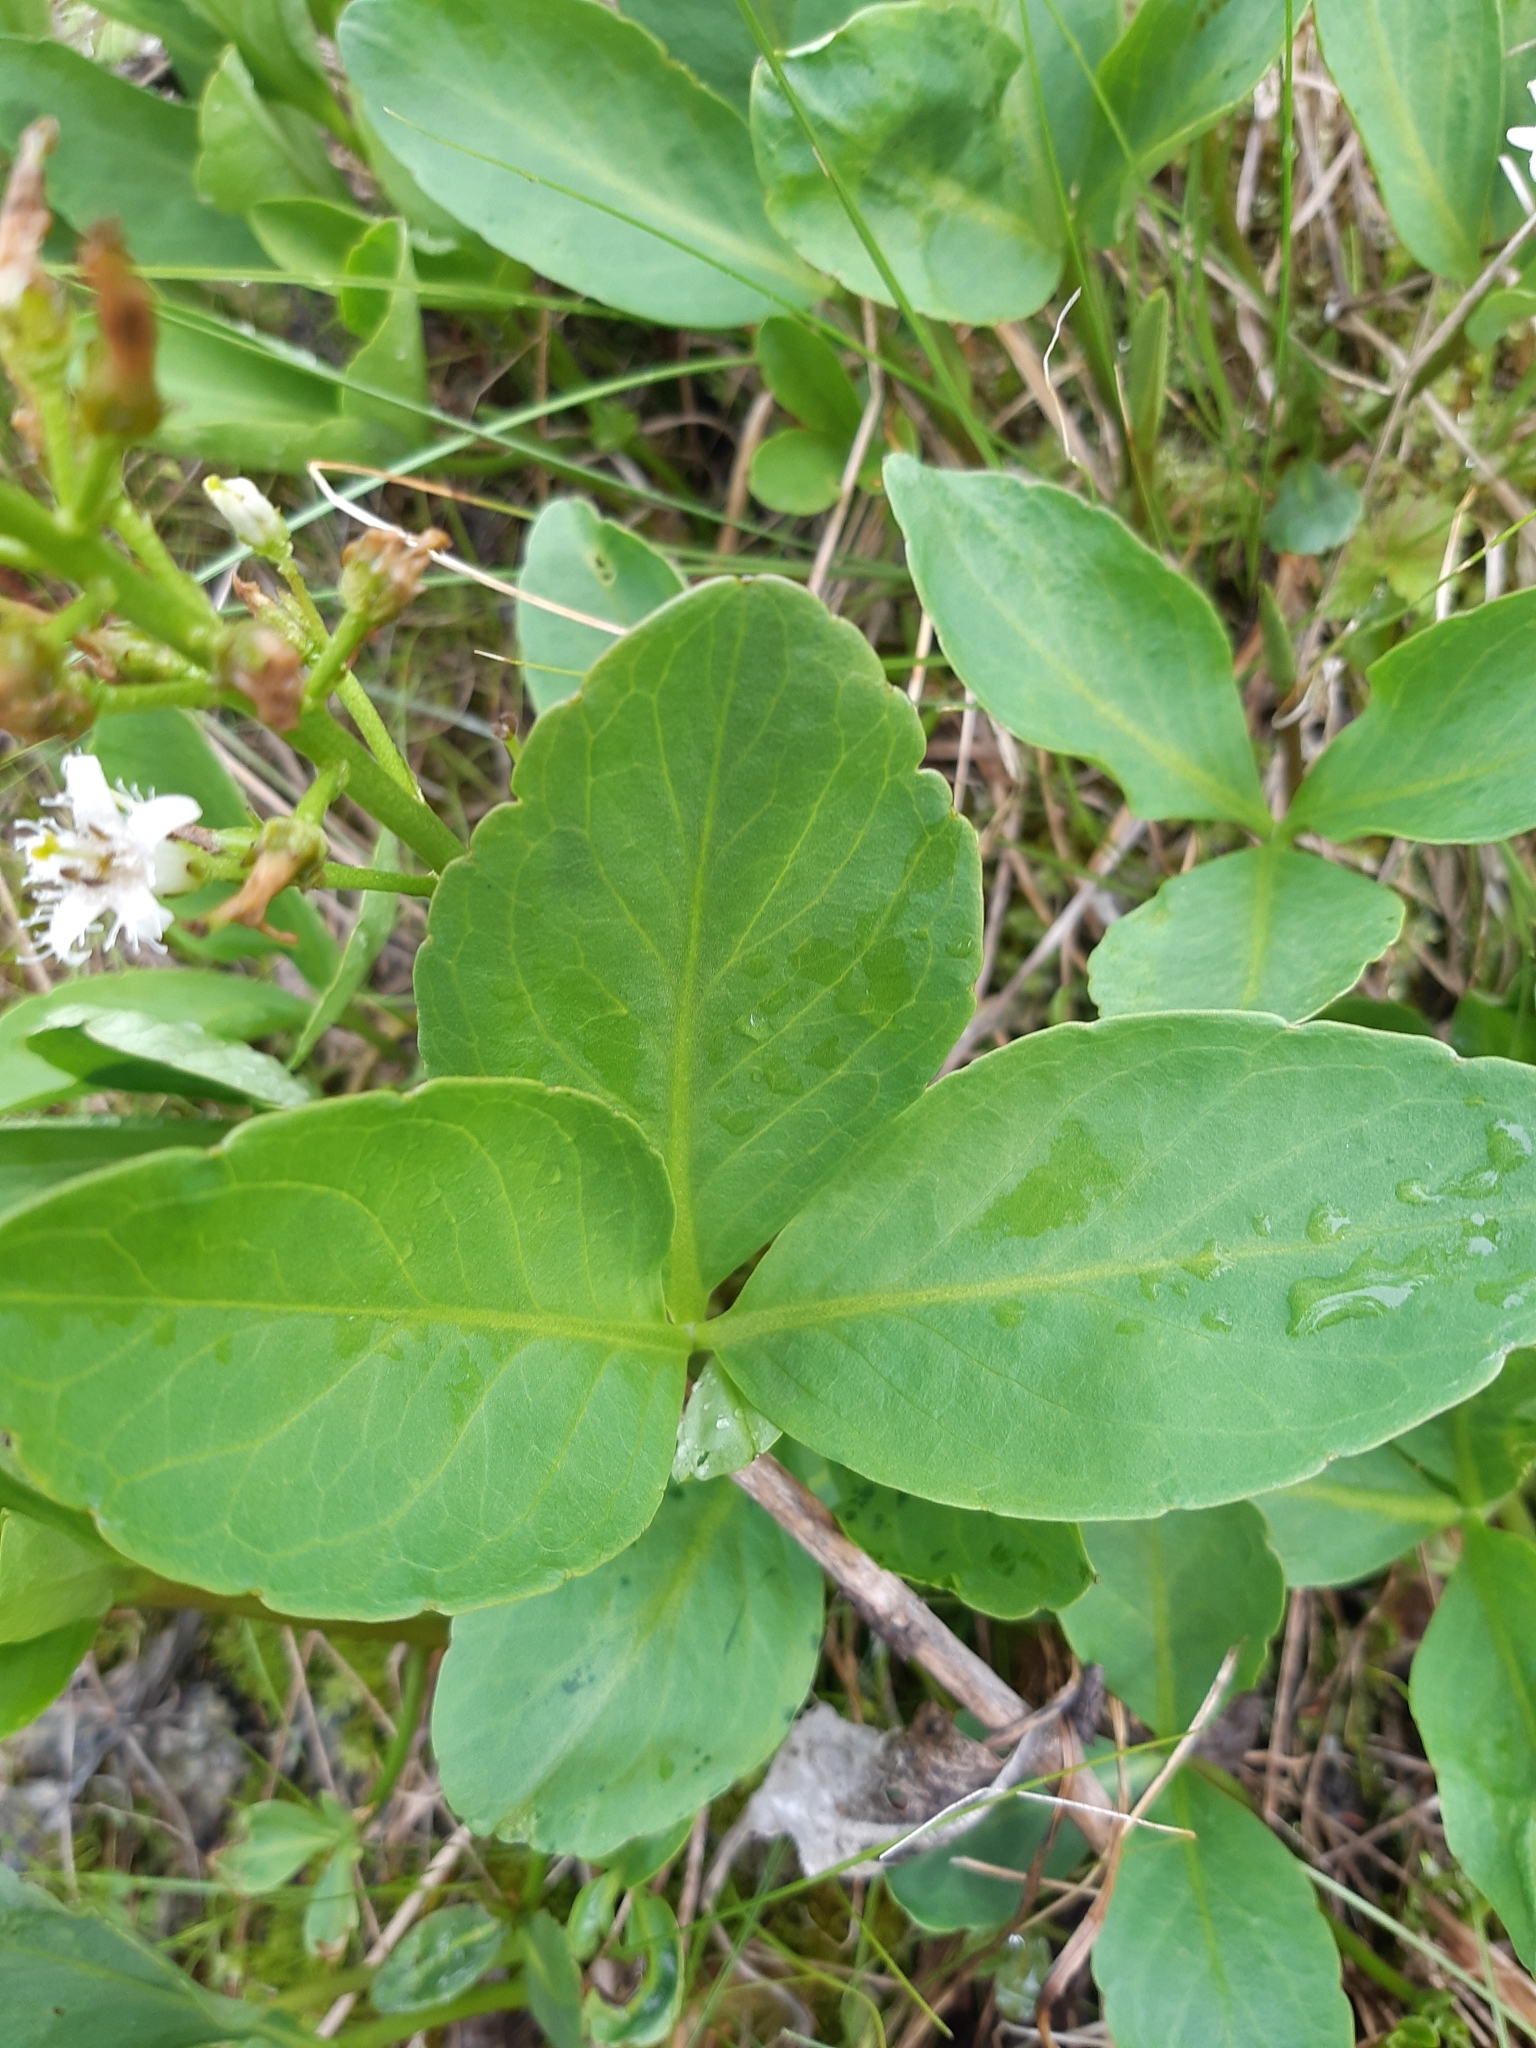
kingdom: Plantae
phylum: Tracheophyta
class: Magnoliopsida
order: Asterales
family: Menyanthaceae
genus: Menyanthes
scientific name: Menyanthes trifoliata
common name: Bogbean
